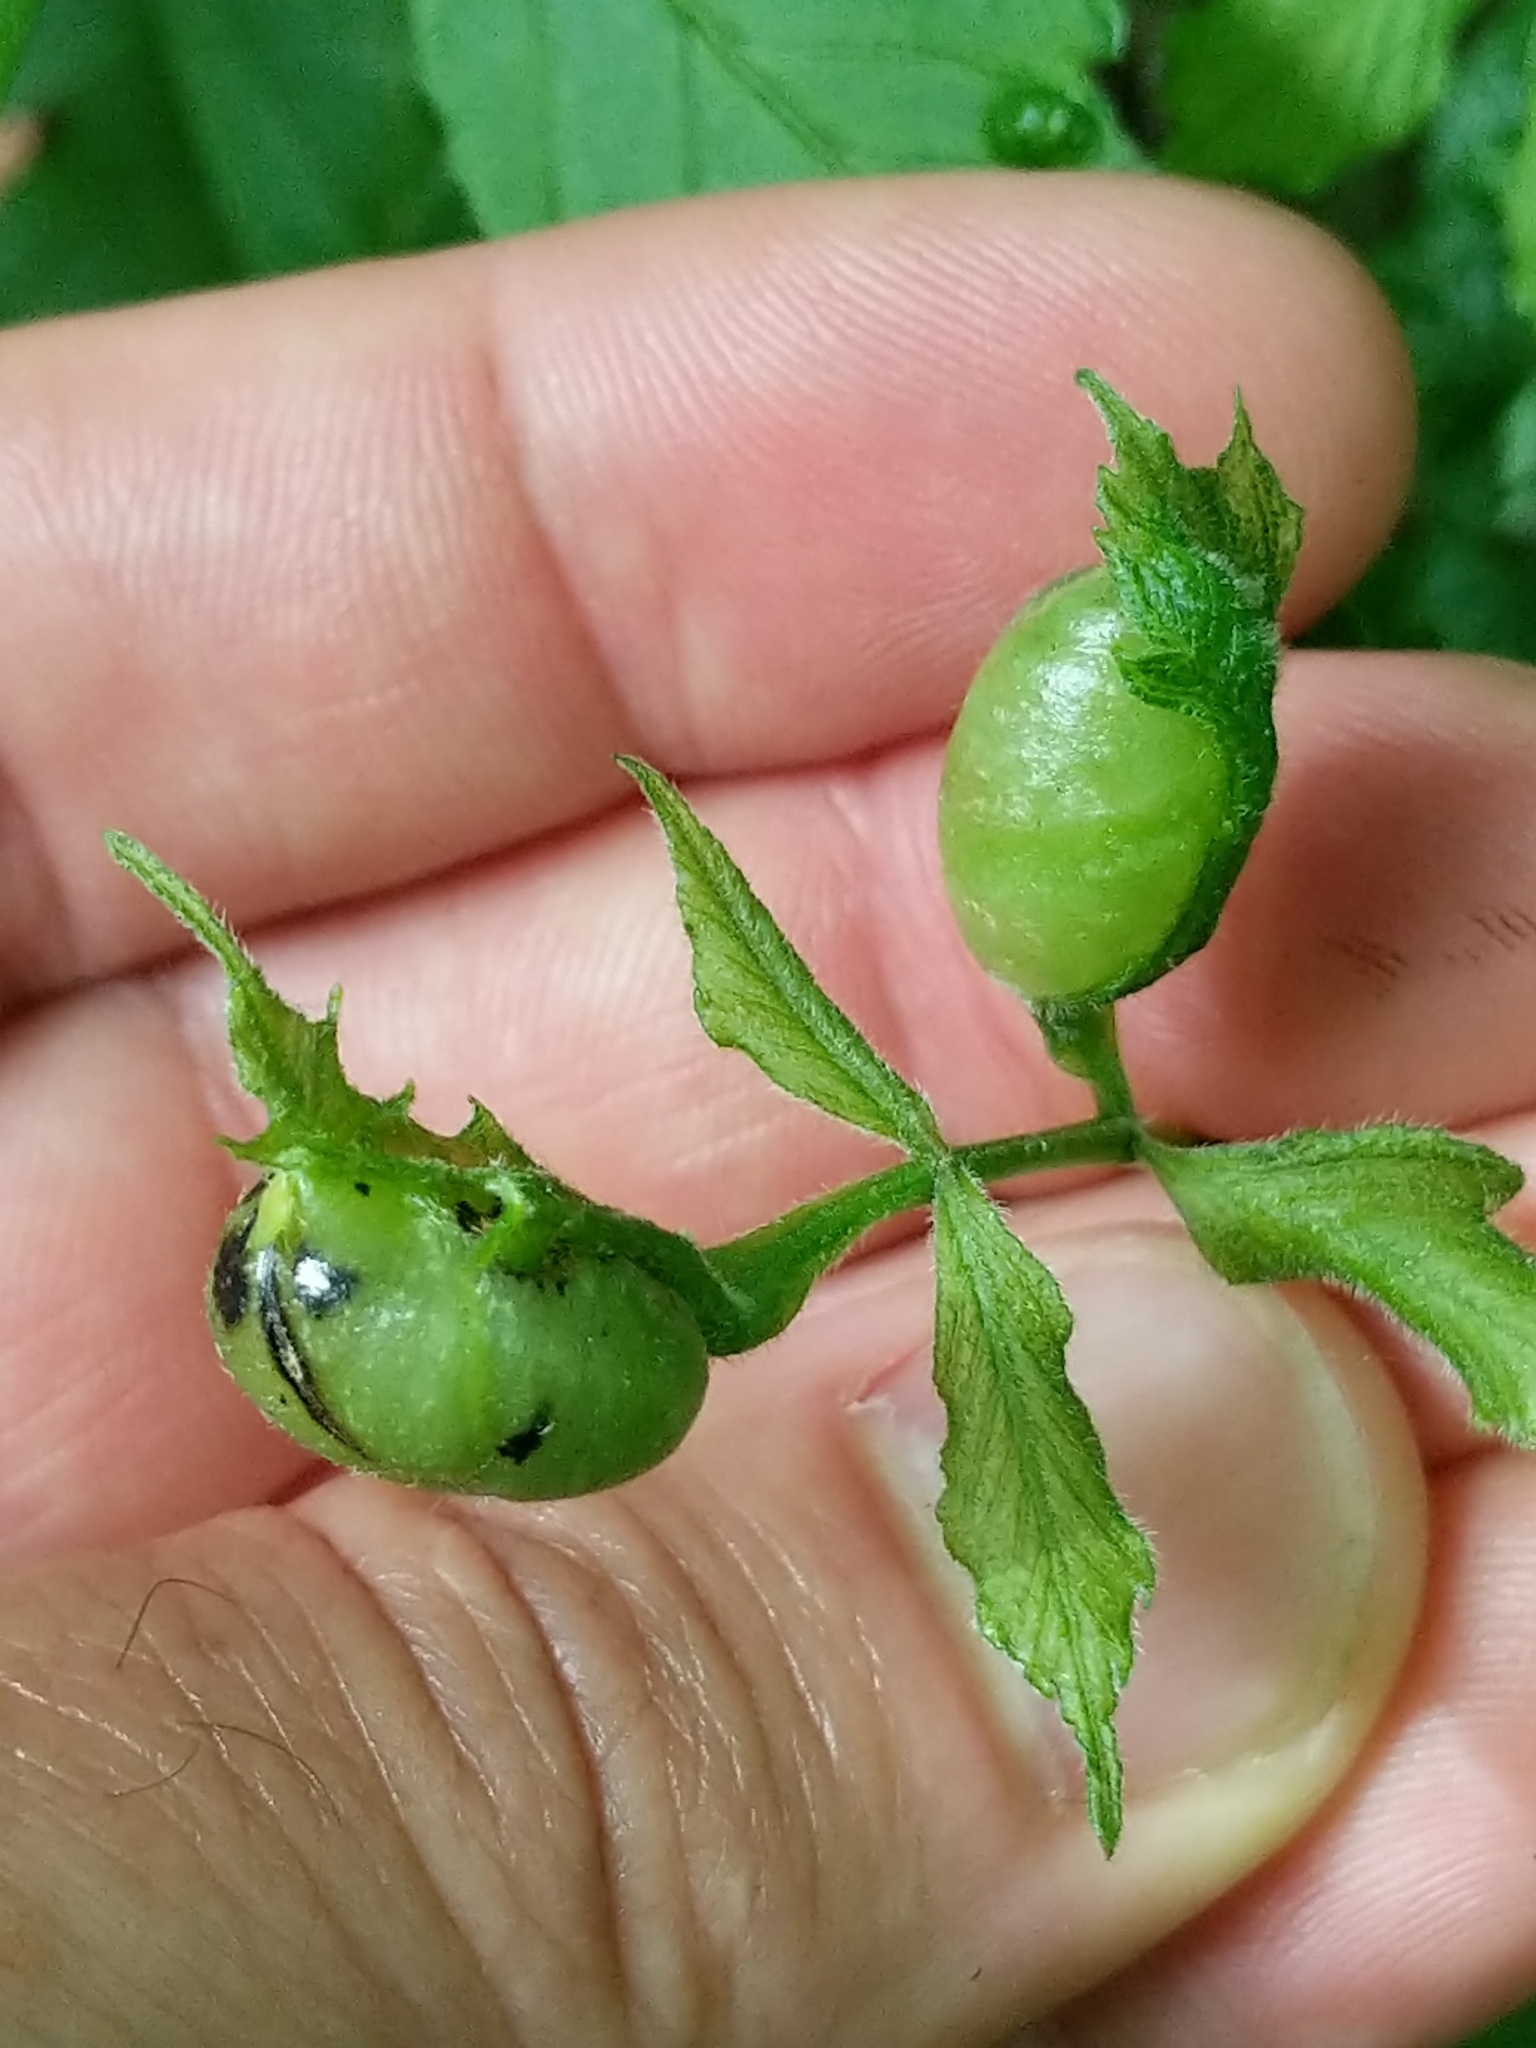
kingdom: Animalia
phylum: Arthropoda
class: Insecta
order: Diptera
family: Cecidomyiidae
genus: Contarinia
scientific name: Contarinia negundinis
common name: Boxelder budgall midge
